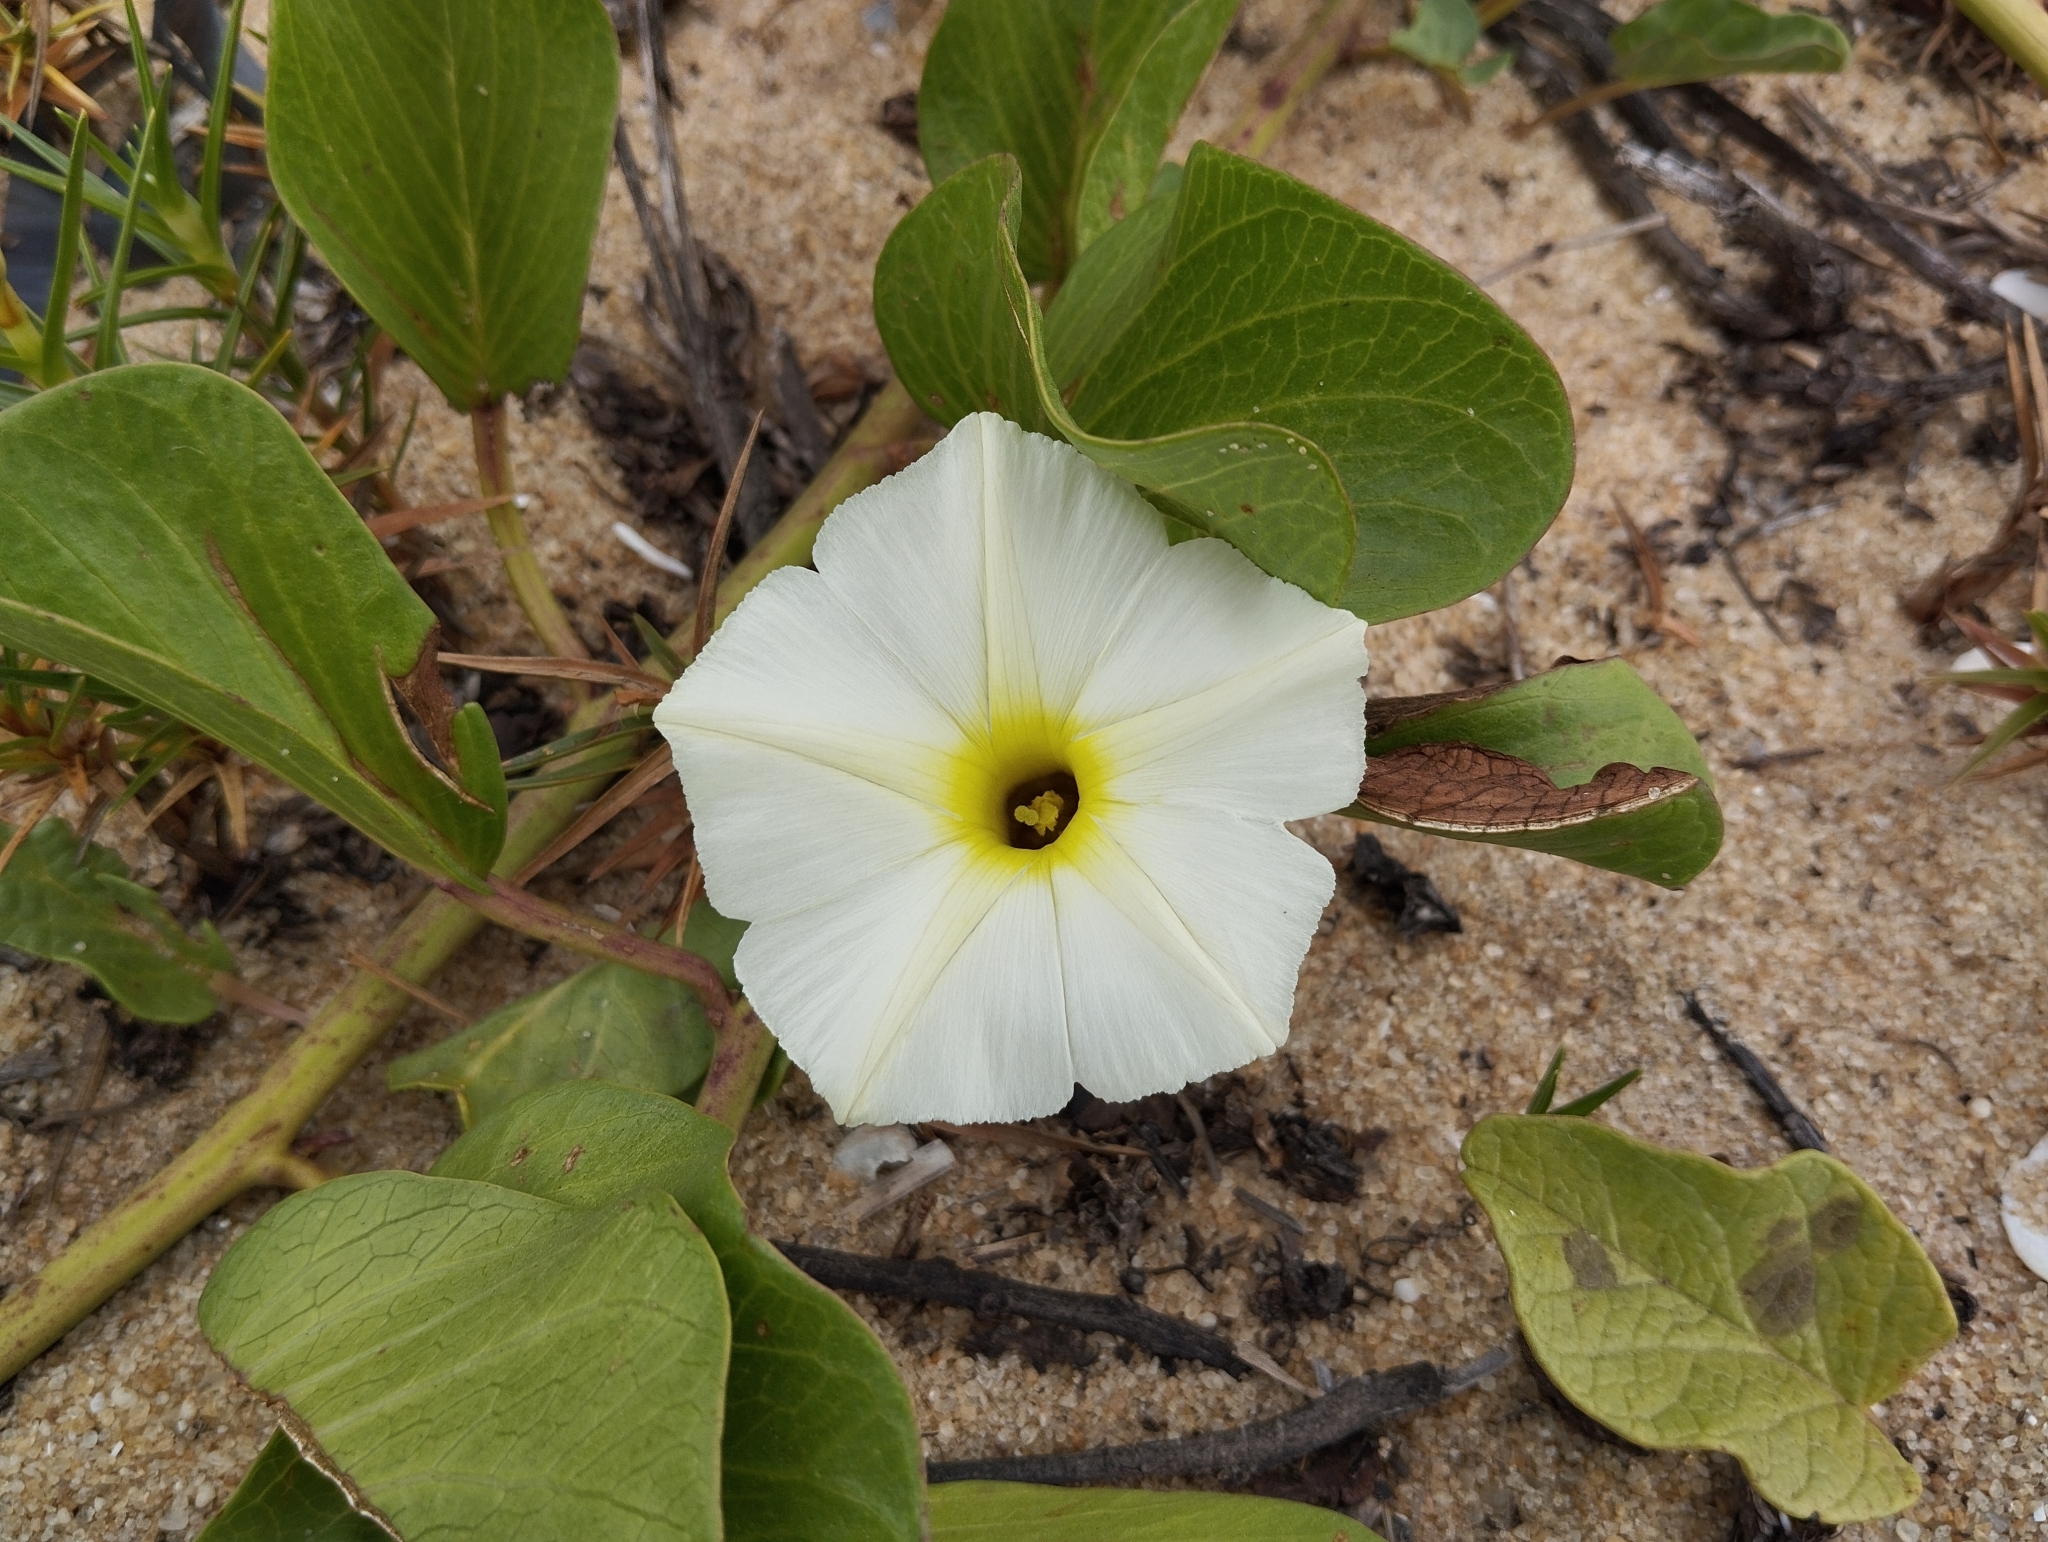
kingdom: Plantae
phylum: Tracheophyta
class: Magnoliopsida
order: Solanales
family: Convolvulaceae
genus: Ipomoea
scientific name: Ipomoea imperati
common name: Fiddle-leaf morning-glory
